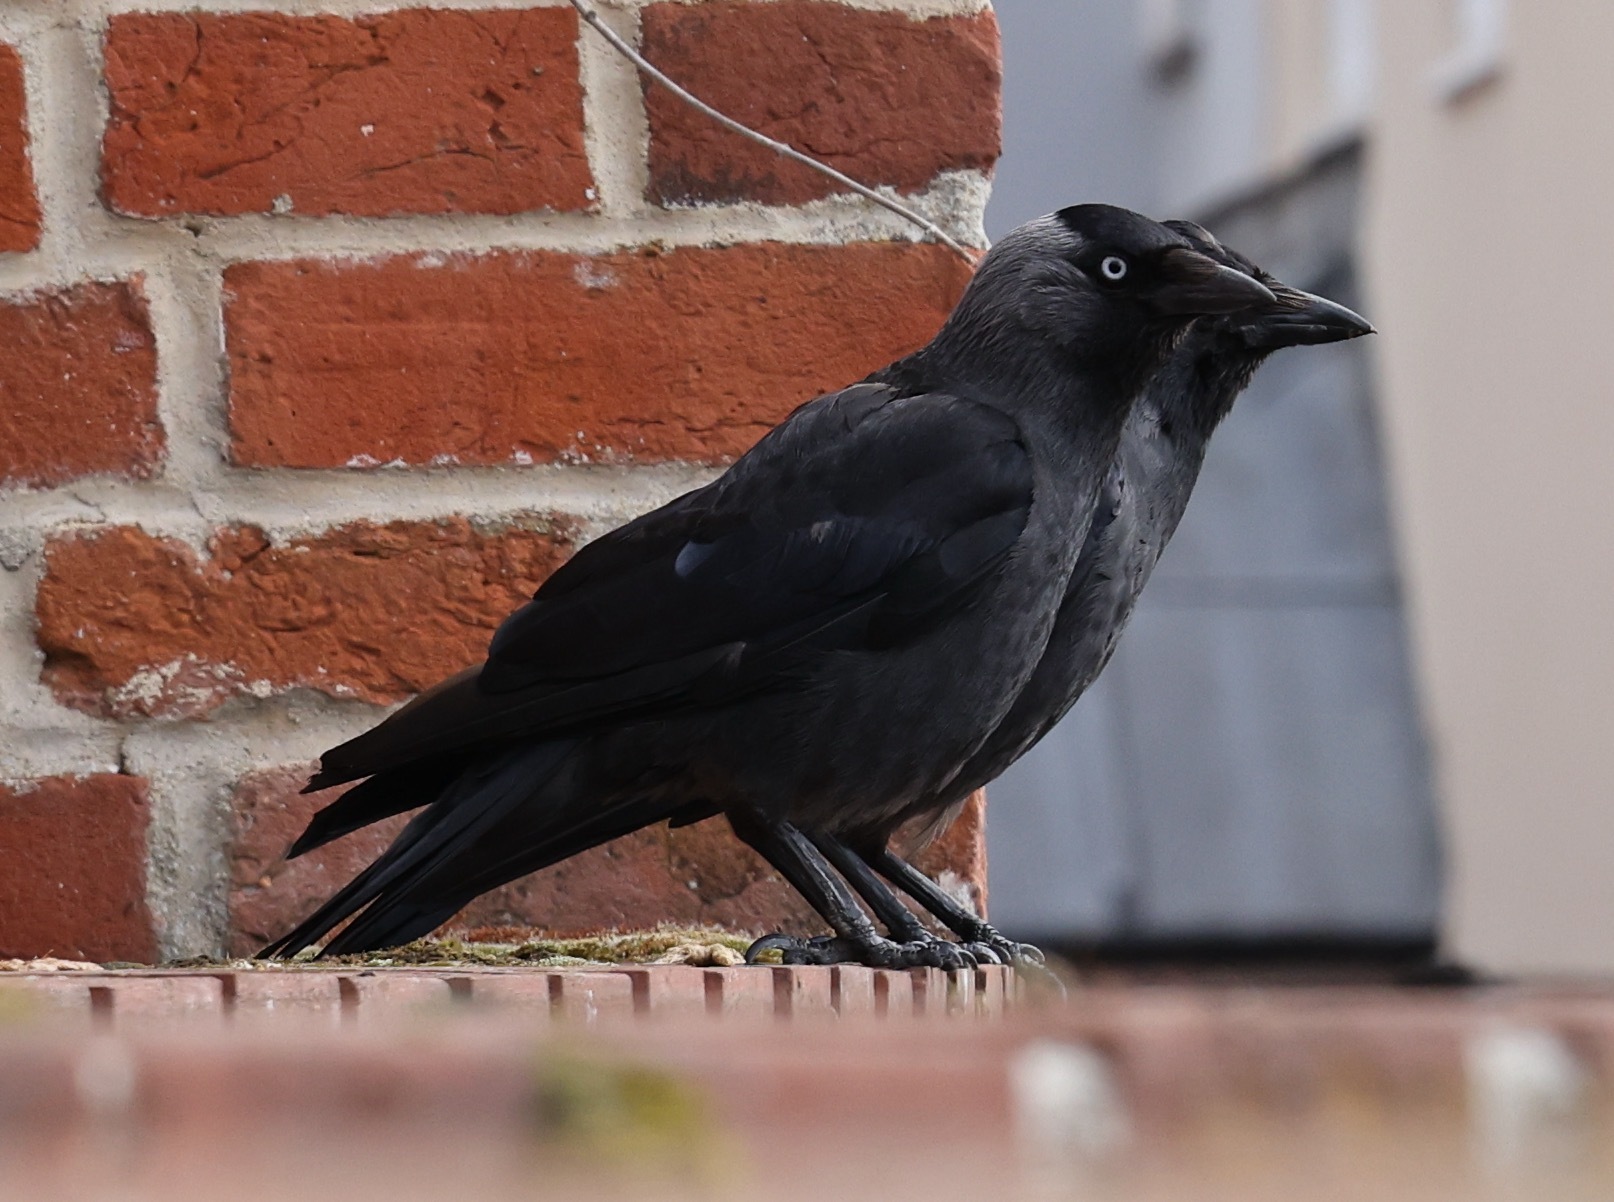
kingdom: Animalia
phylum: Chordata
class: Aves
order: Passeriformes
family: Corvidae
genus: Coloeus
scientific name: Coloeus monedula
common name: Western jackdaw
